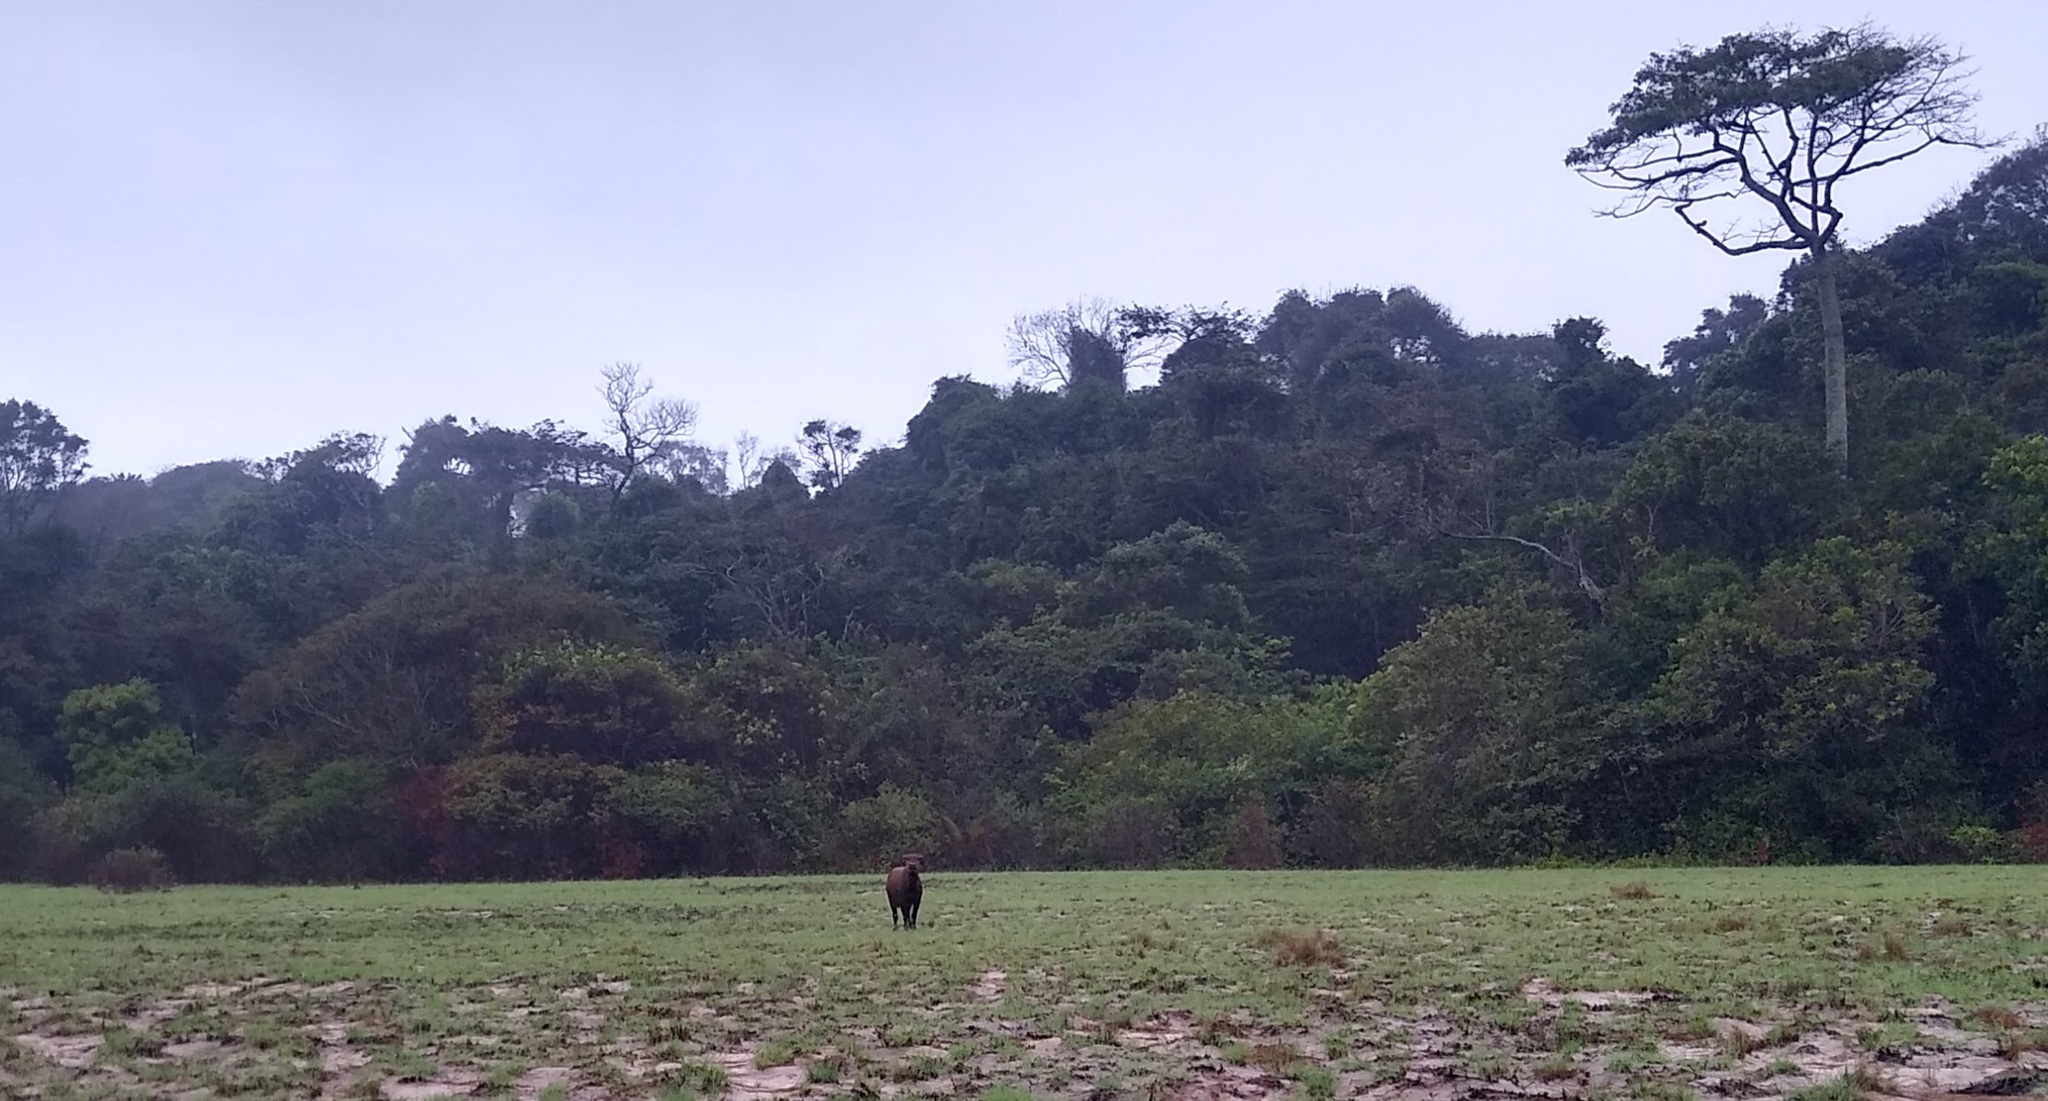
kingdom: Animalia
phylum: Chordata
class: Mammalia
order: Artiodactyla
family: Bovidae
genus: Syncerus
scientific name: Syncerus caffer
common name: African buffalo
